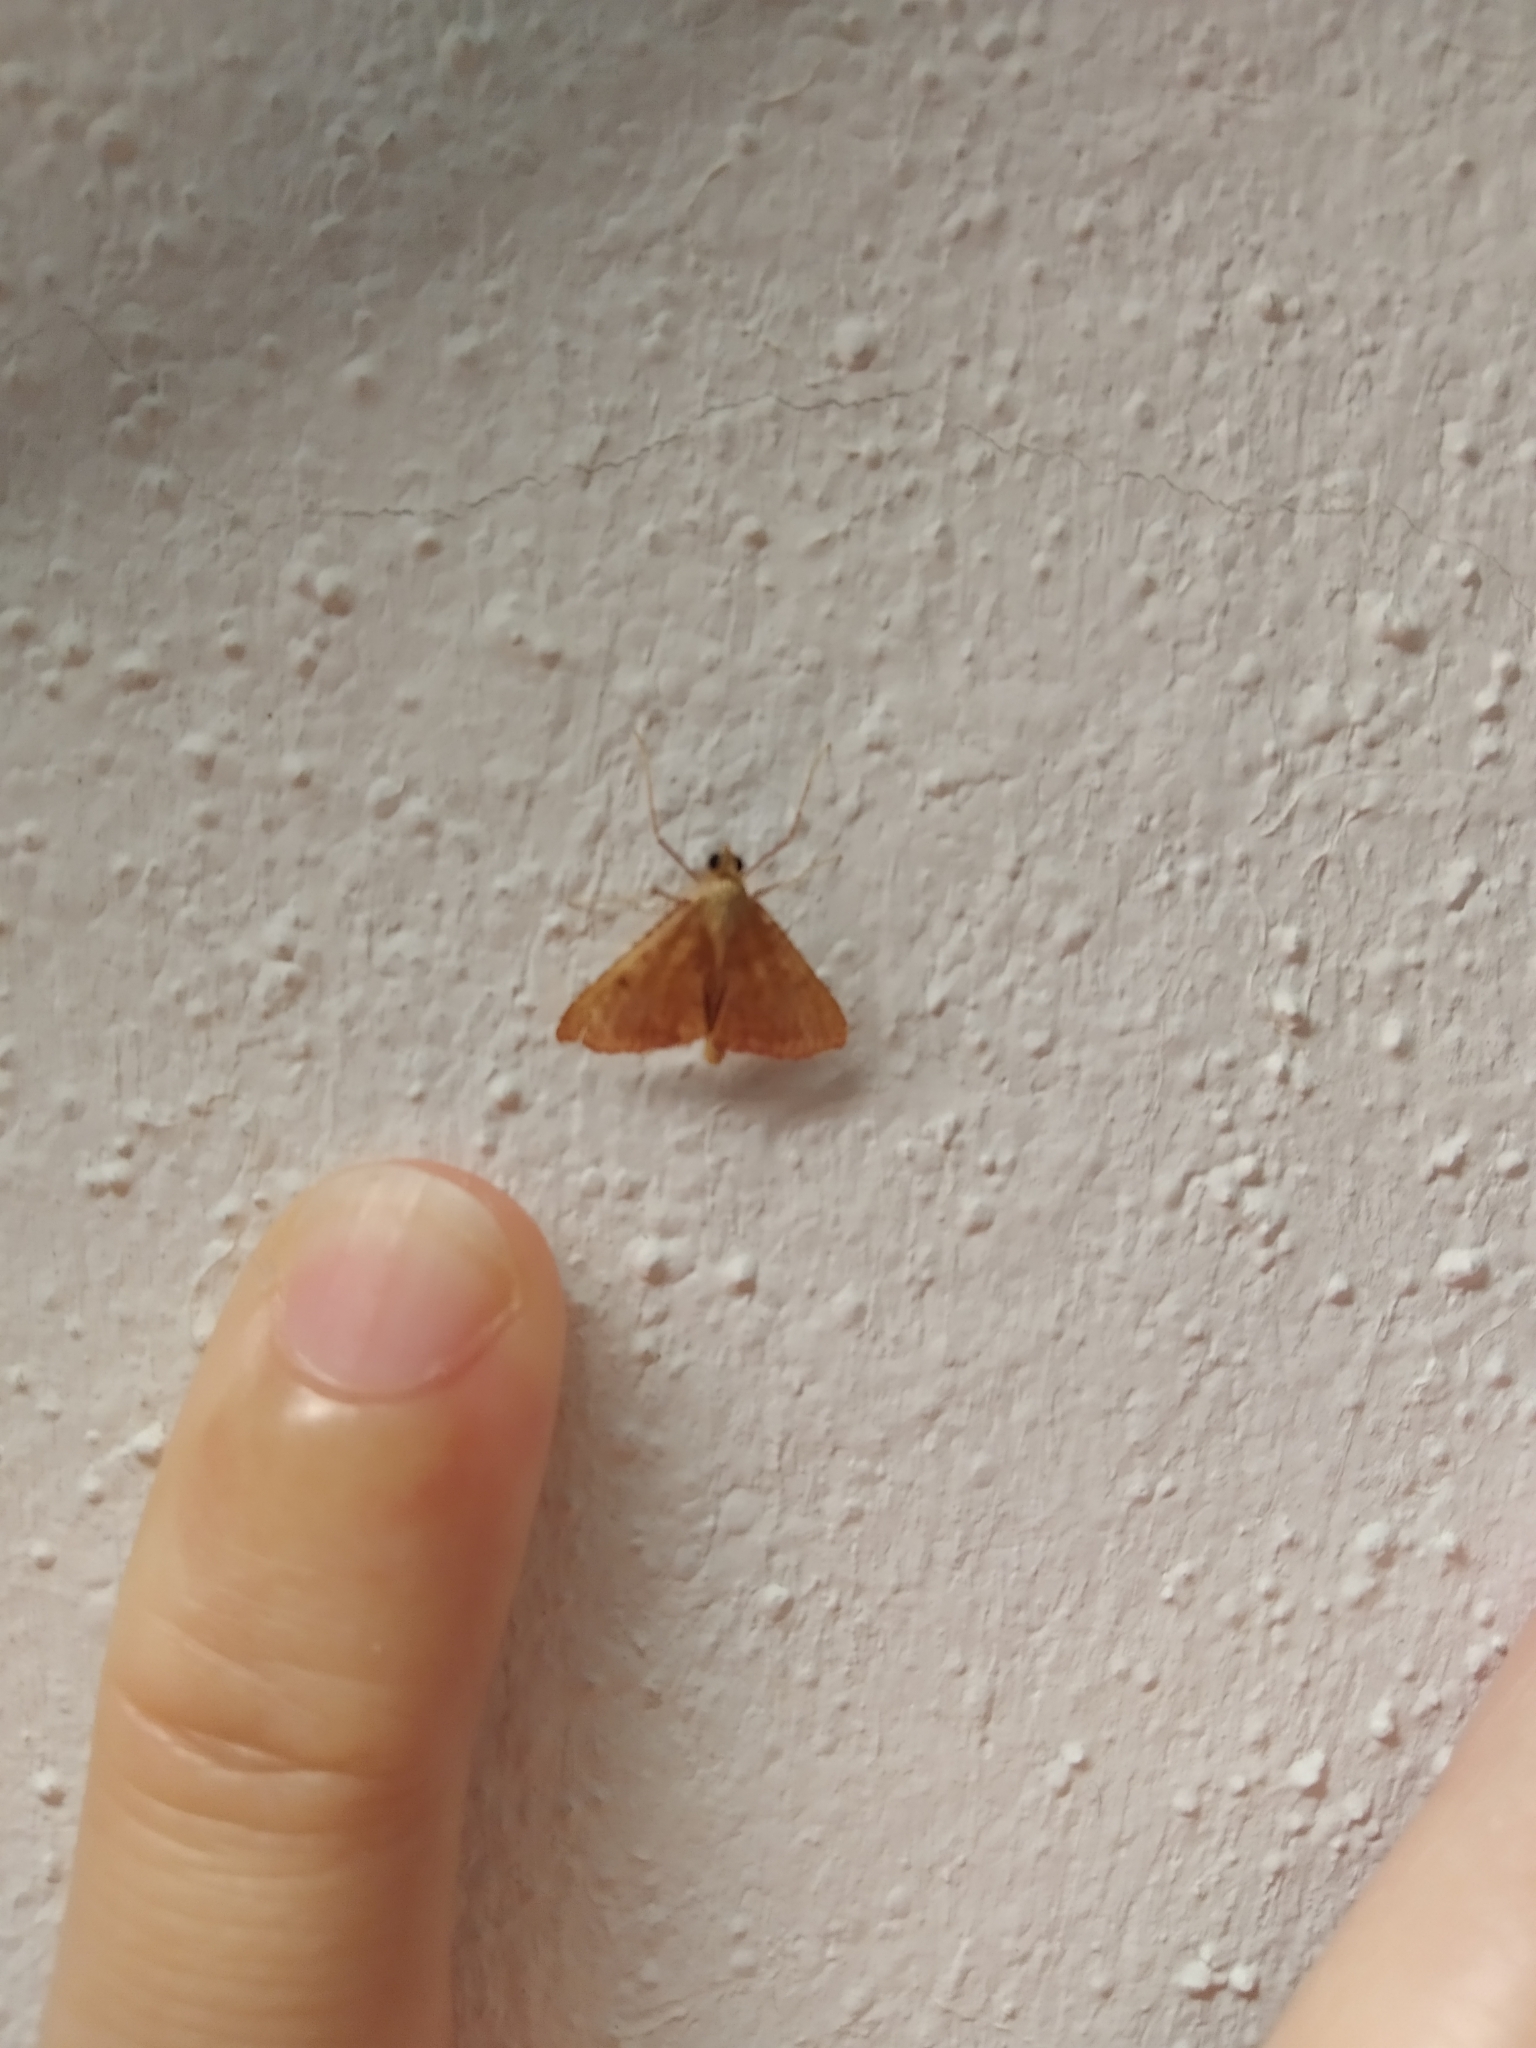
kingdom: Animalia
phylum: Arthropoda
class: Insecta
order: Lepidoptera
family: Pyralidae
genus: Endotricha
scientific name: Endotricha flammealis
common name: Rosy tabby
